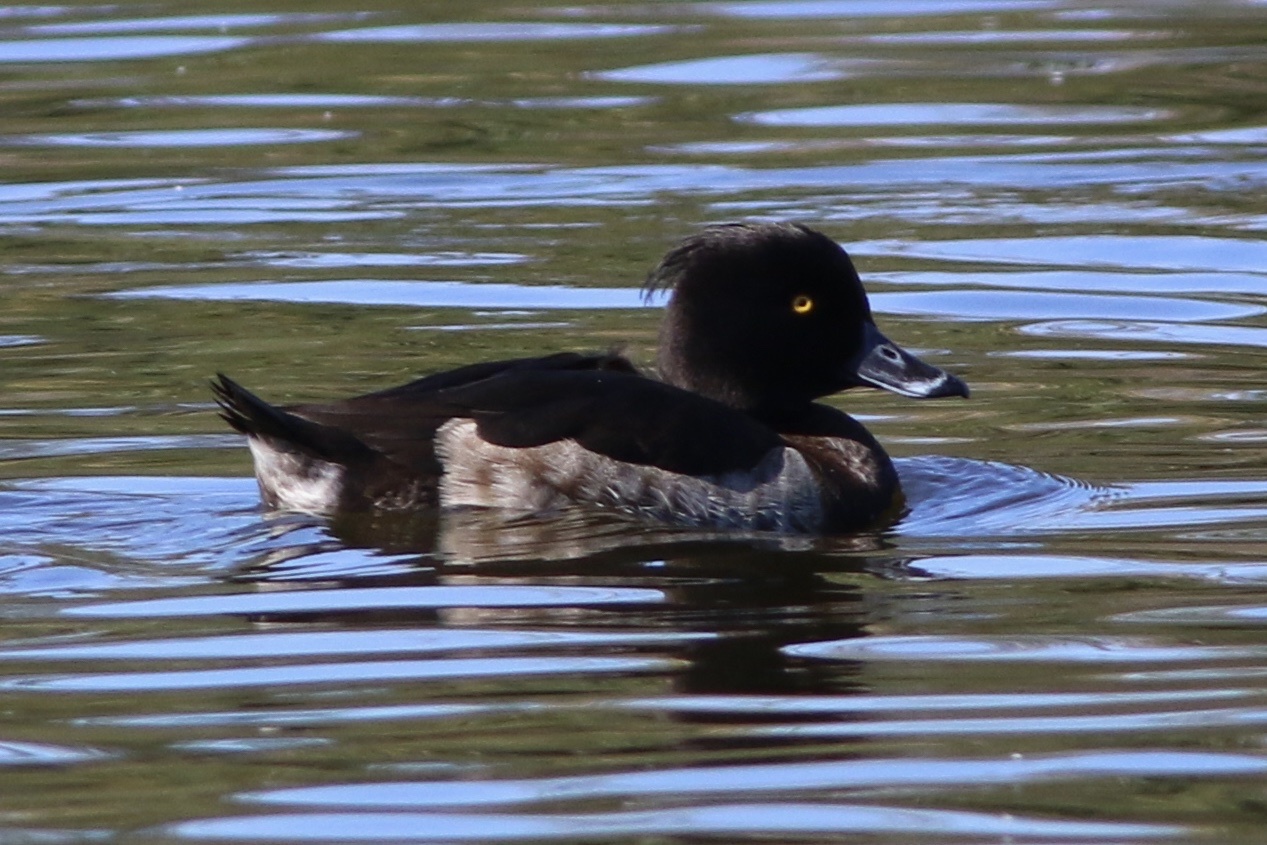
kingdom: Animalia
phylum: Chordata
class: Aves
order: Anseriformes
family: Anatidae
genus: Aythya
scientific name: Aythya fuligula
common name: Tufted duck
